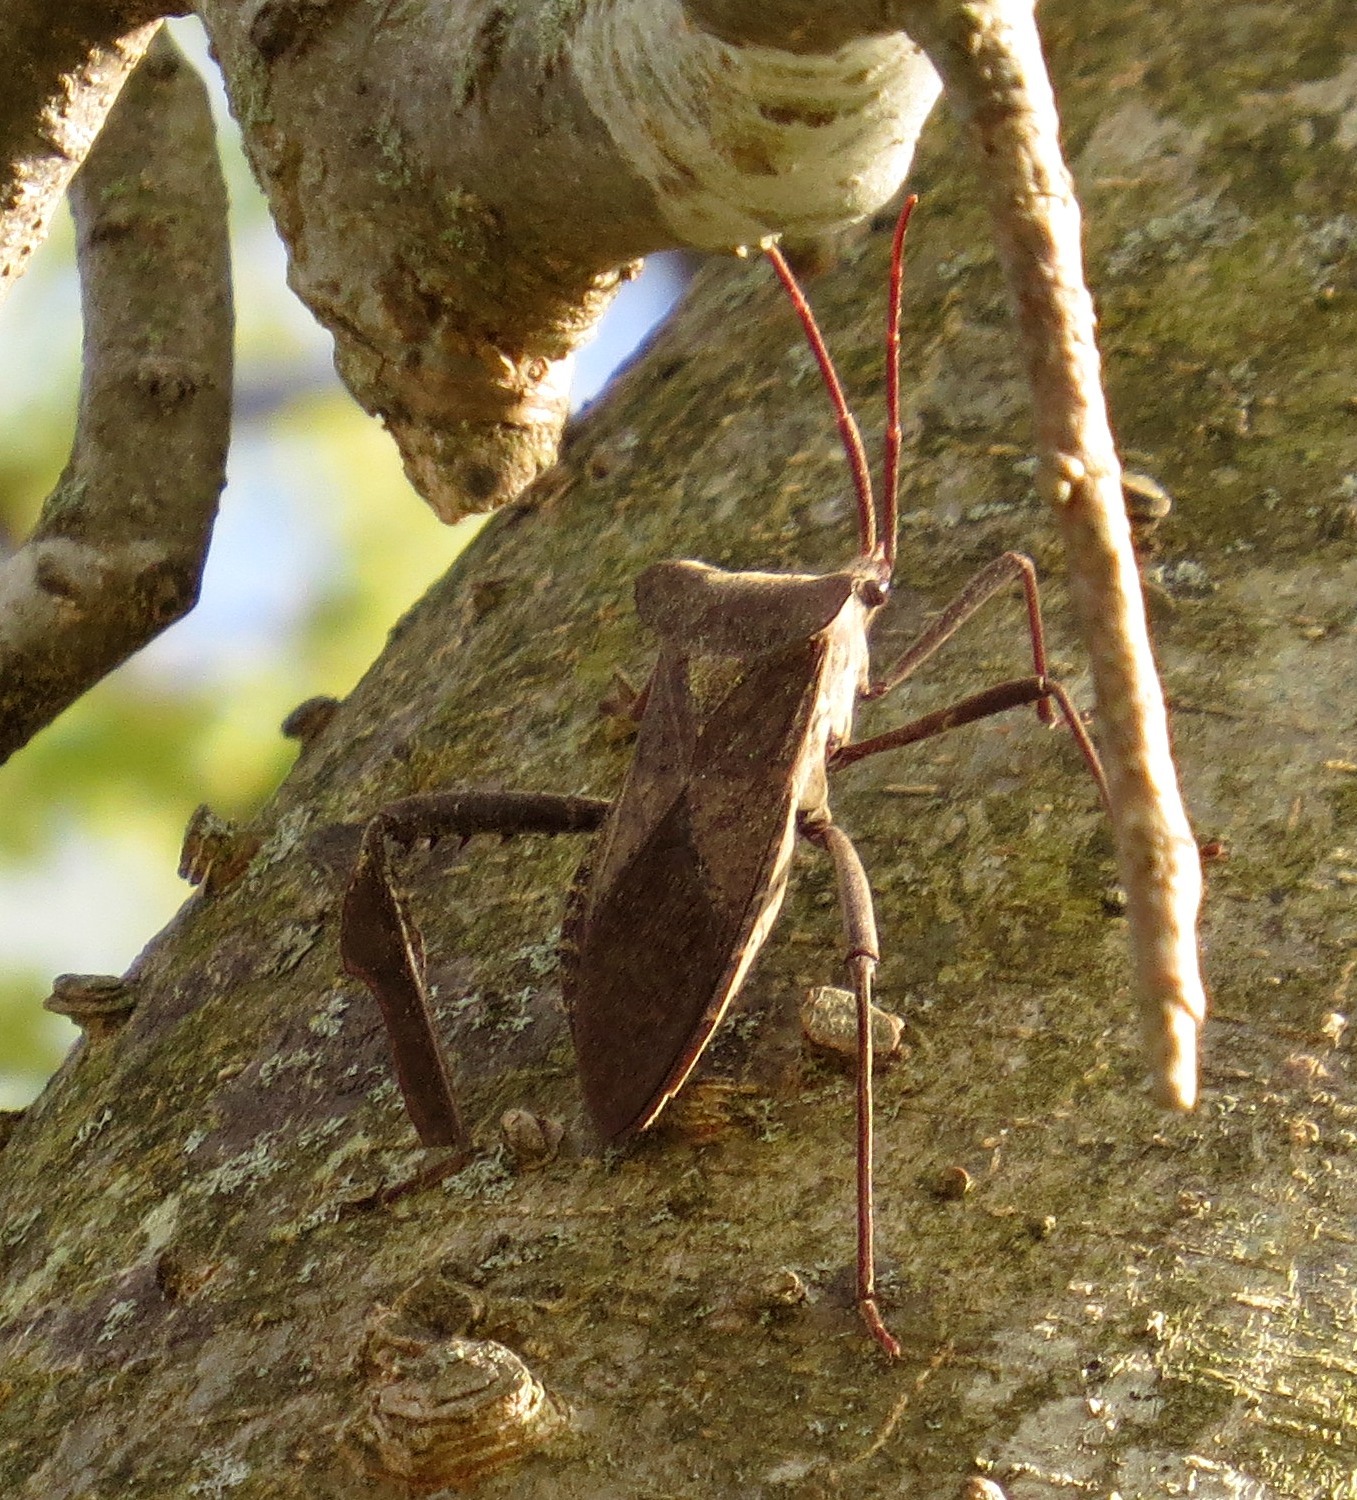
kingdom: Animalia
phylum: Arthropoda
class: Insecta
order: Hemiptera
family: Coreidae
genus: Acanthocephala
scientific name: Acanthocephala declivis
